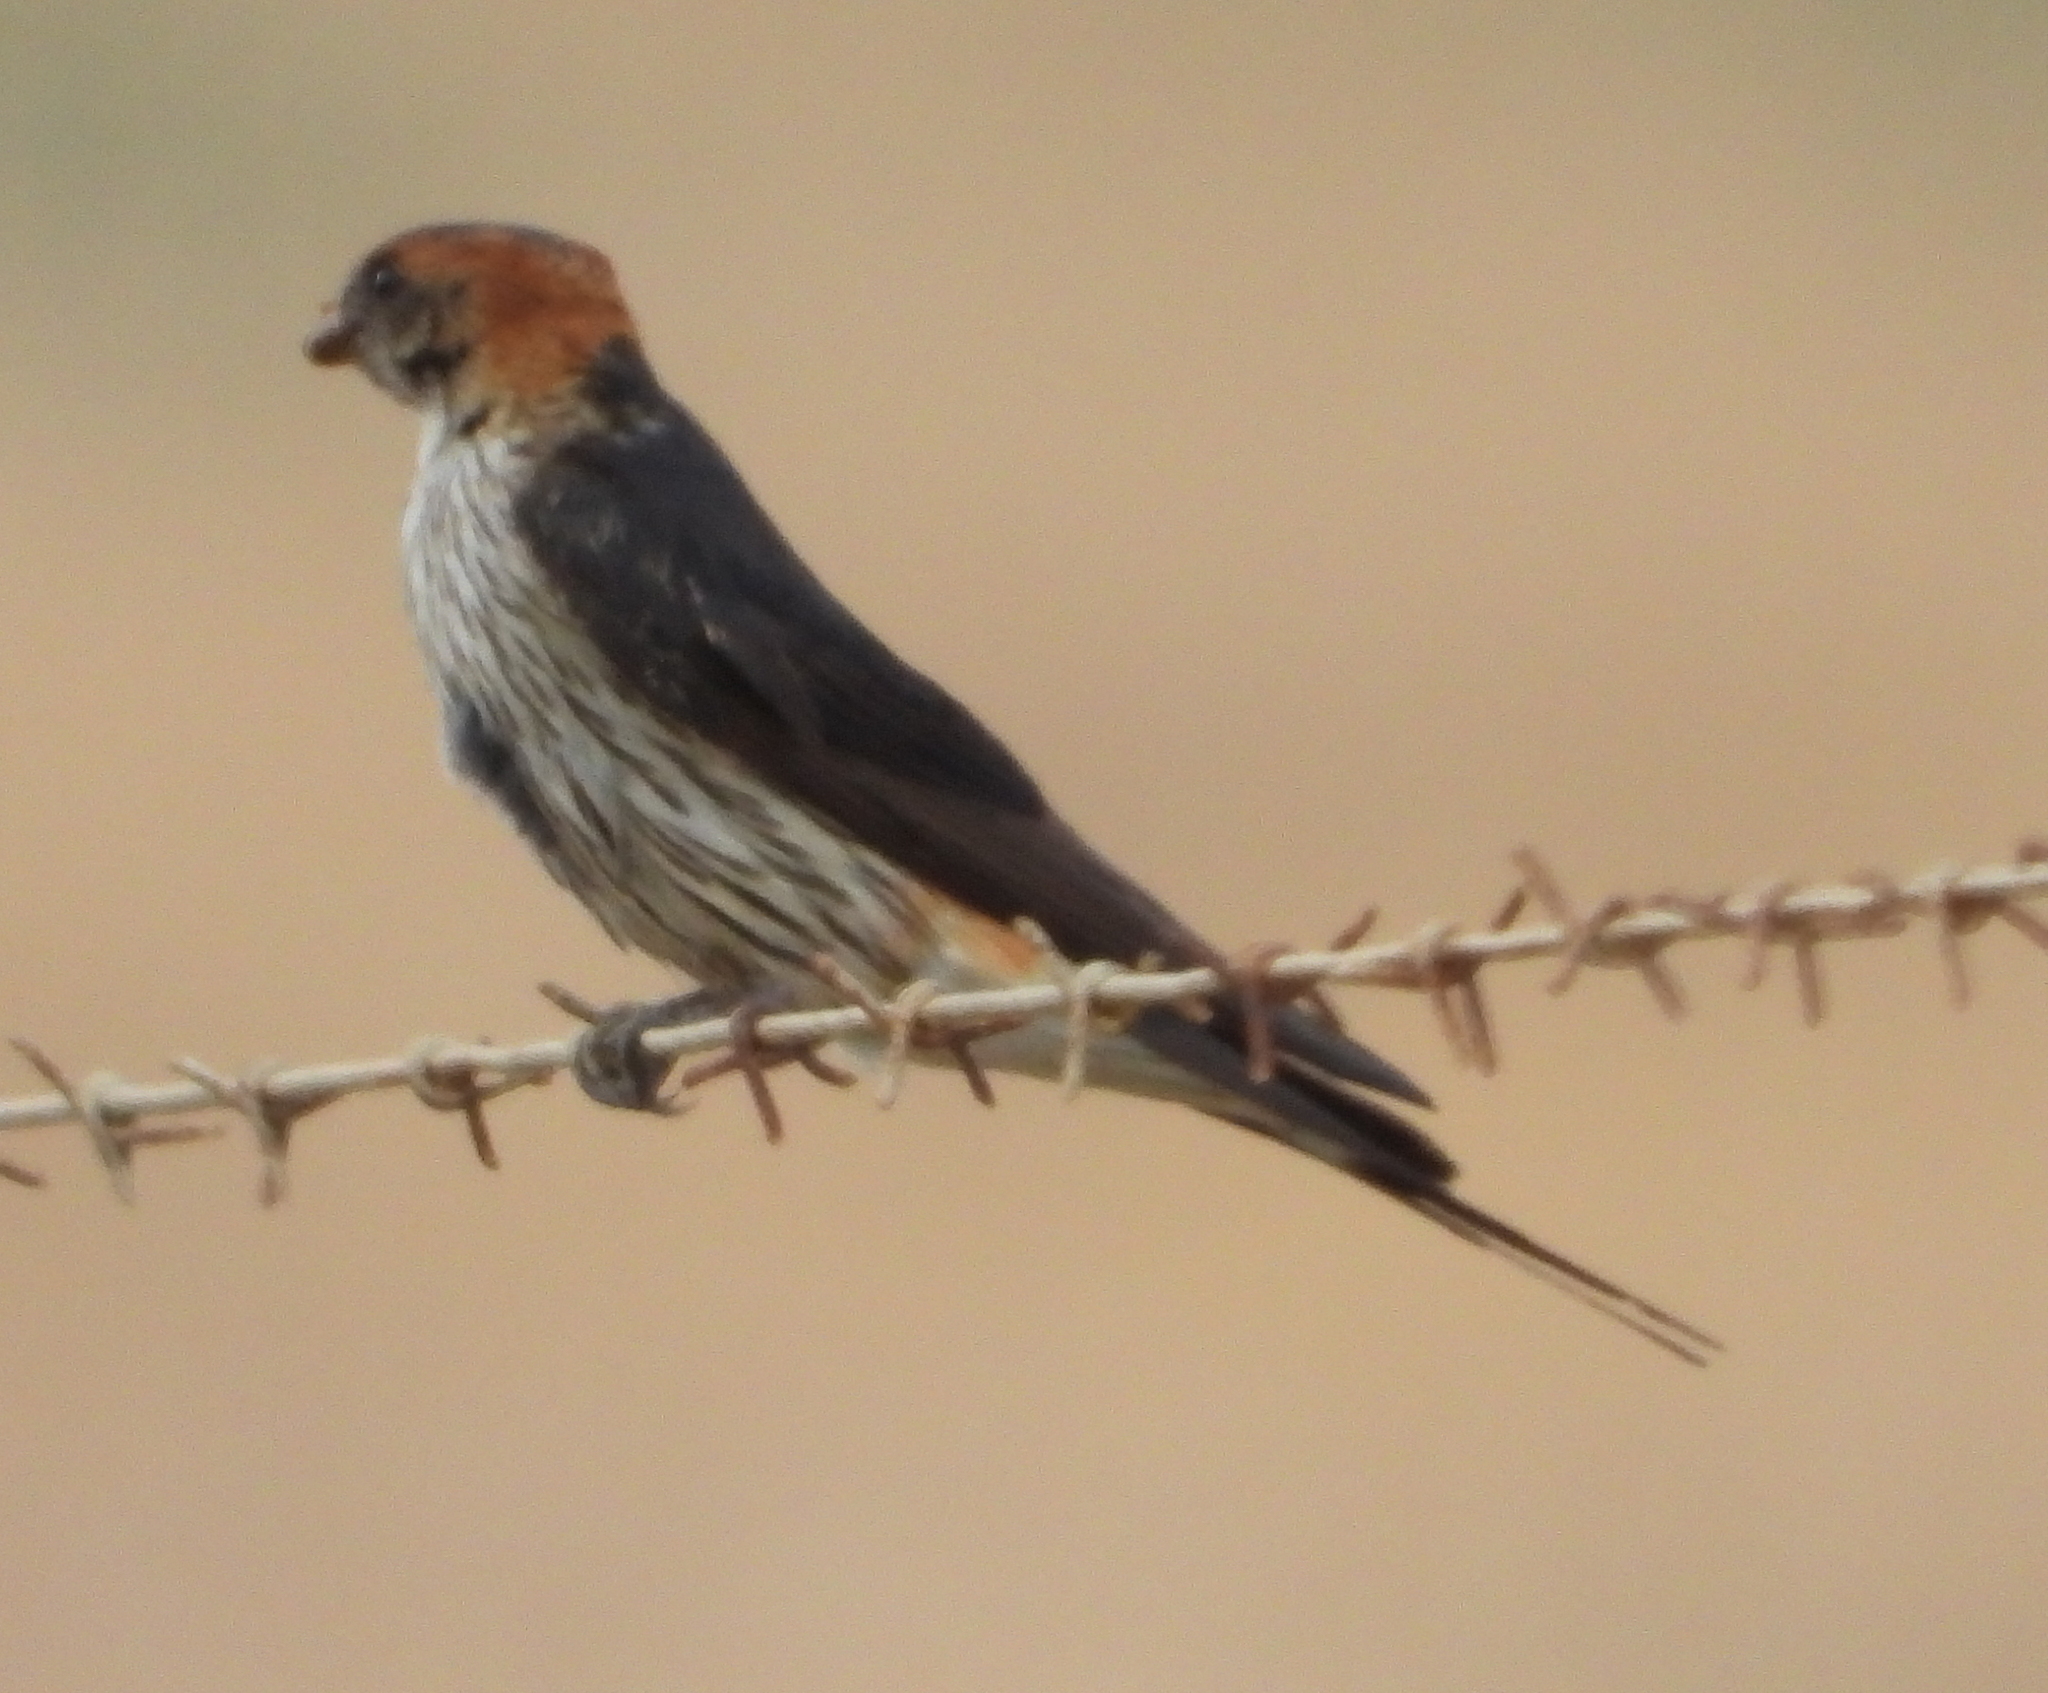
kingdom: Animalia
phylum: Chordata
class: Aves
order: Passeriformes
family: Hirundinidae
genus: Cecropis
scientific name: Cecropis cucullata
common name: Greater striped-swallow
